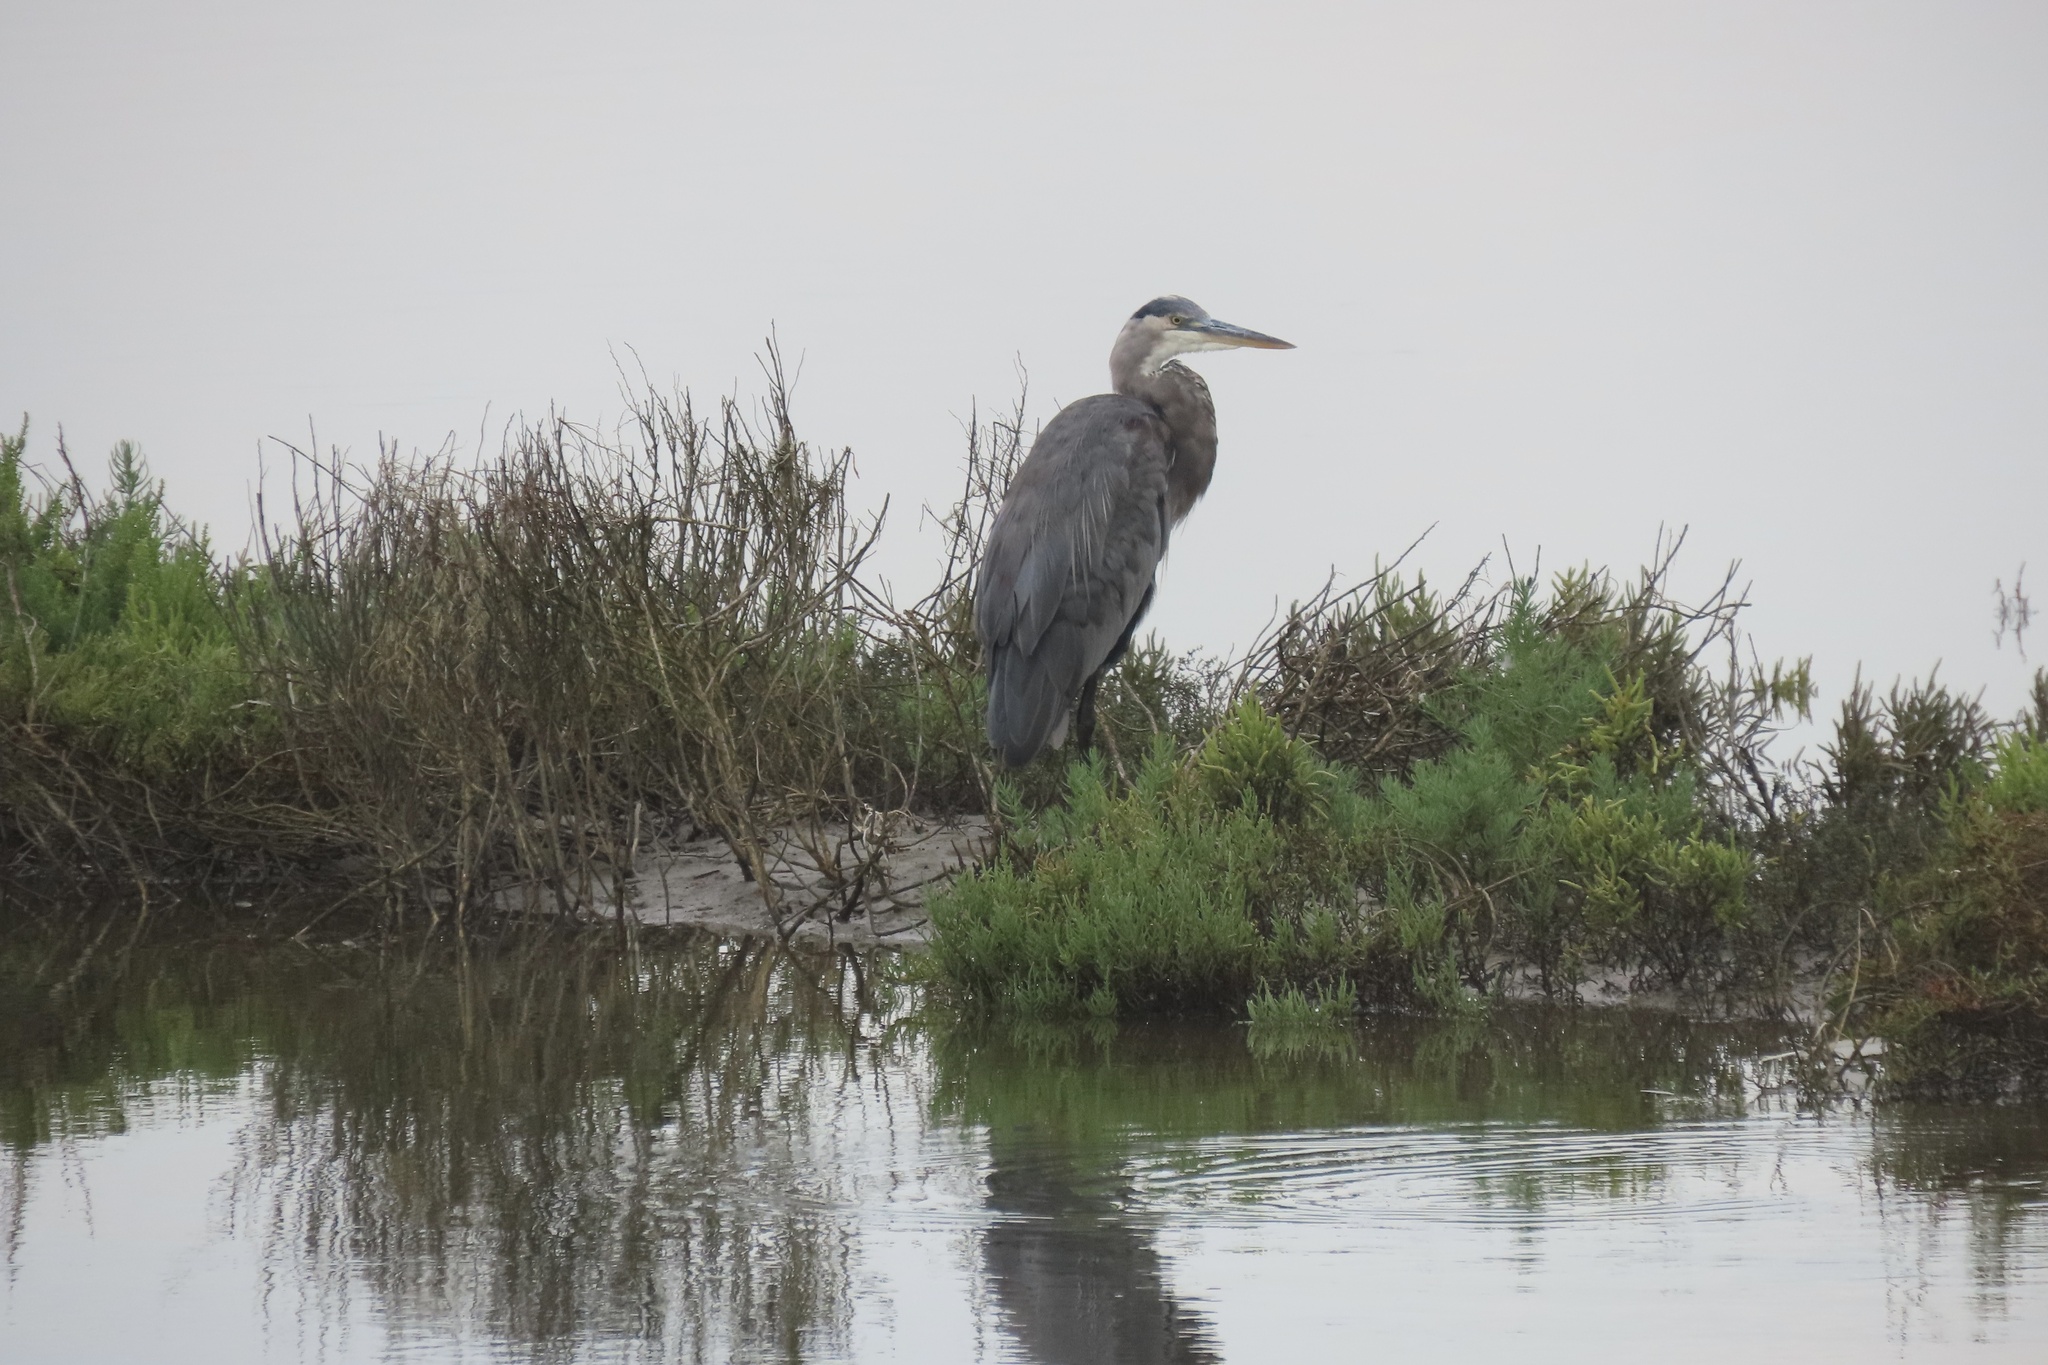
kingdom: Animalia
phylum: Chordata
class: Aves
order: Pelecaniformes
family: Ardeidae
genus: Ardea
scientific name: Ardea herodias
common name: Great blue heron
